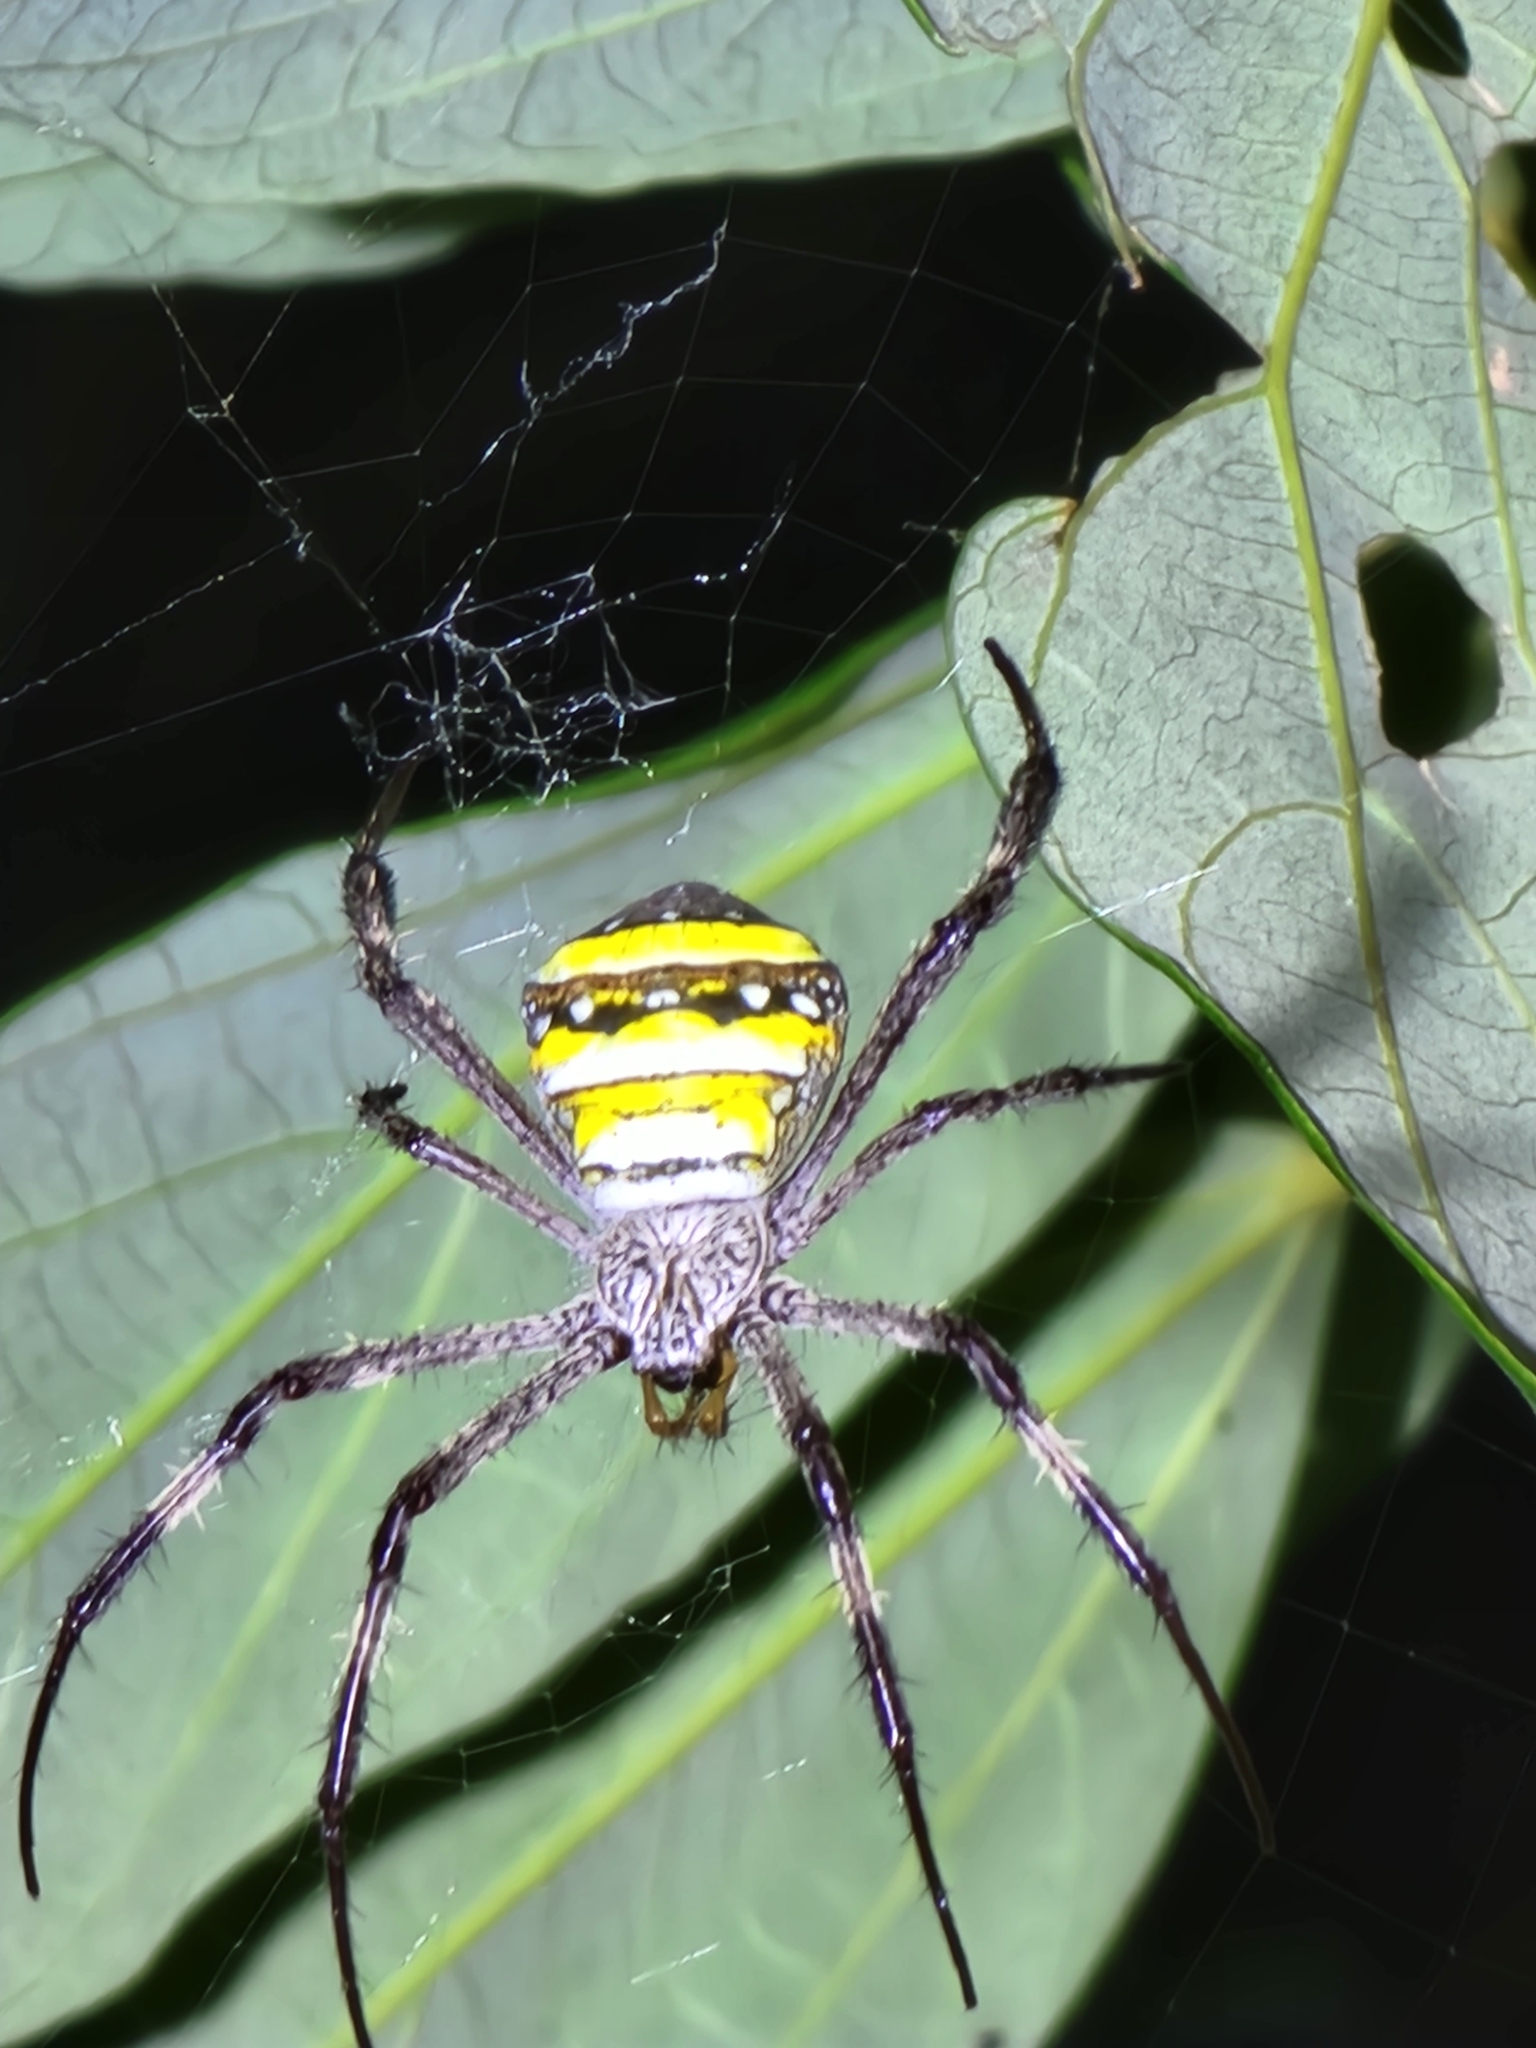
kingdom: Animalia
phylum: Arthropoda
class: Arachnida
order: Araneae
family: Araneidae
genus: Argiope
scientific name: Argiope aetherea
